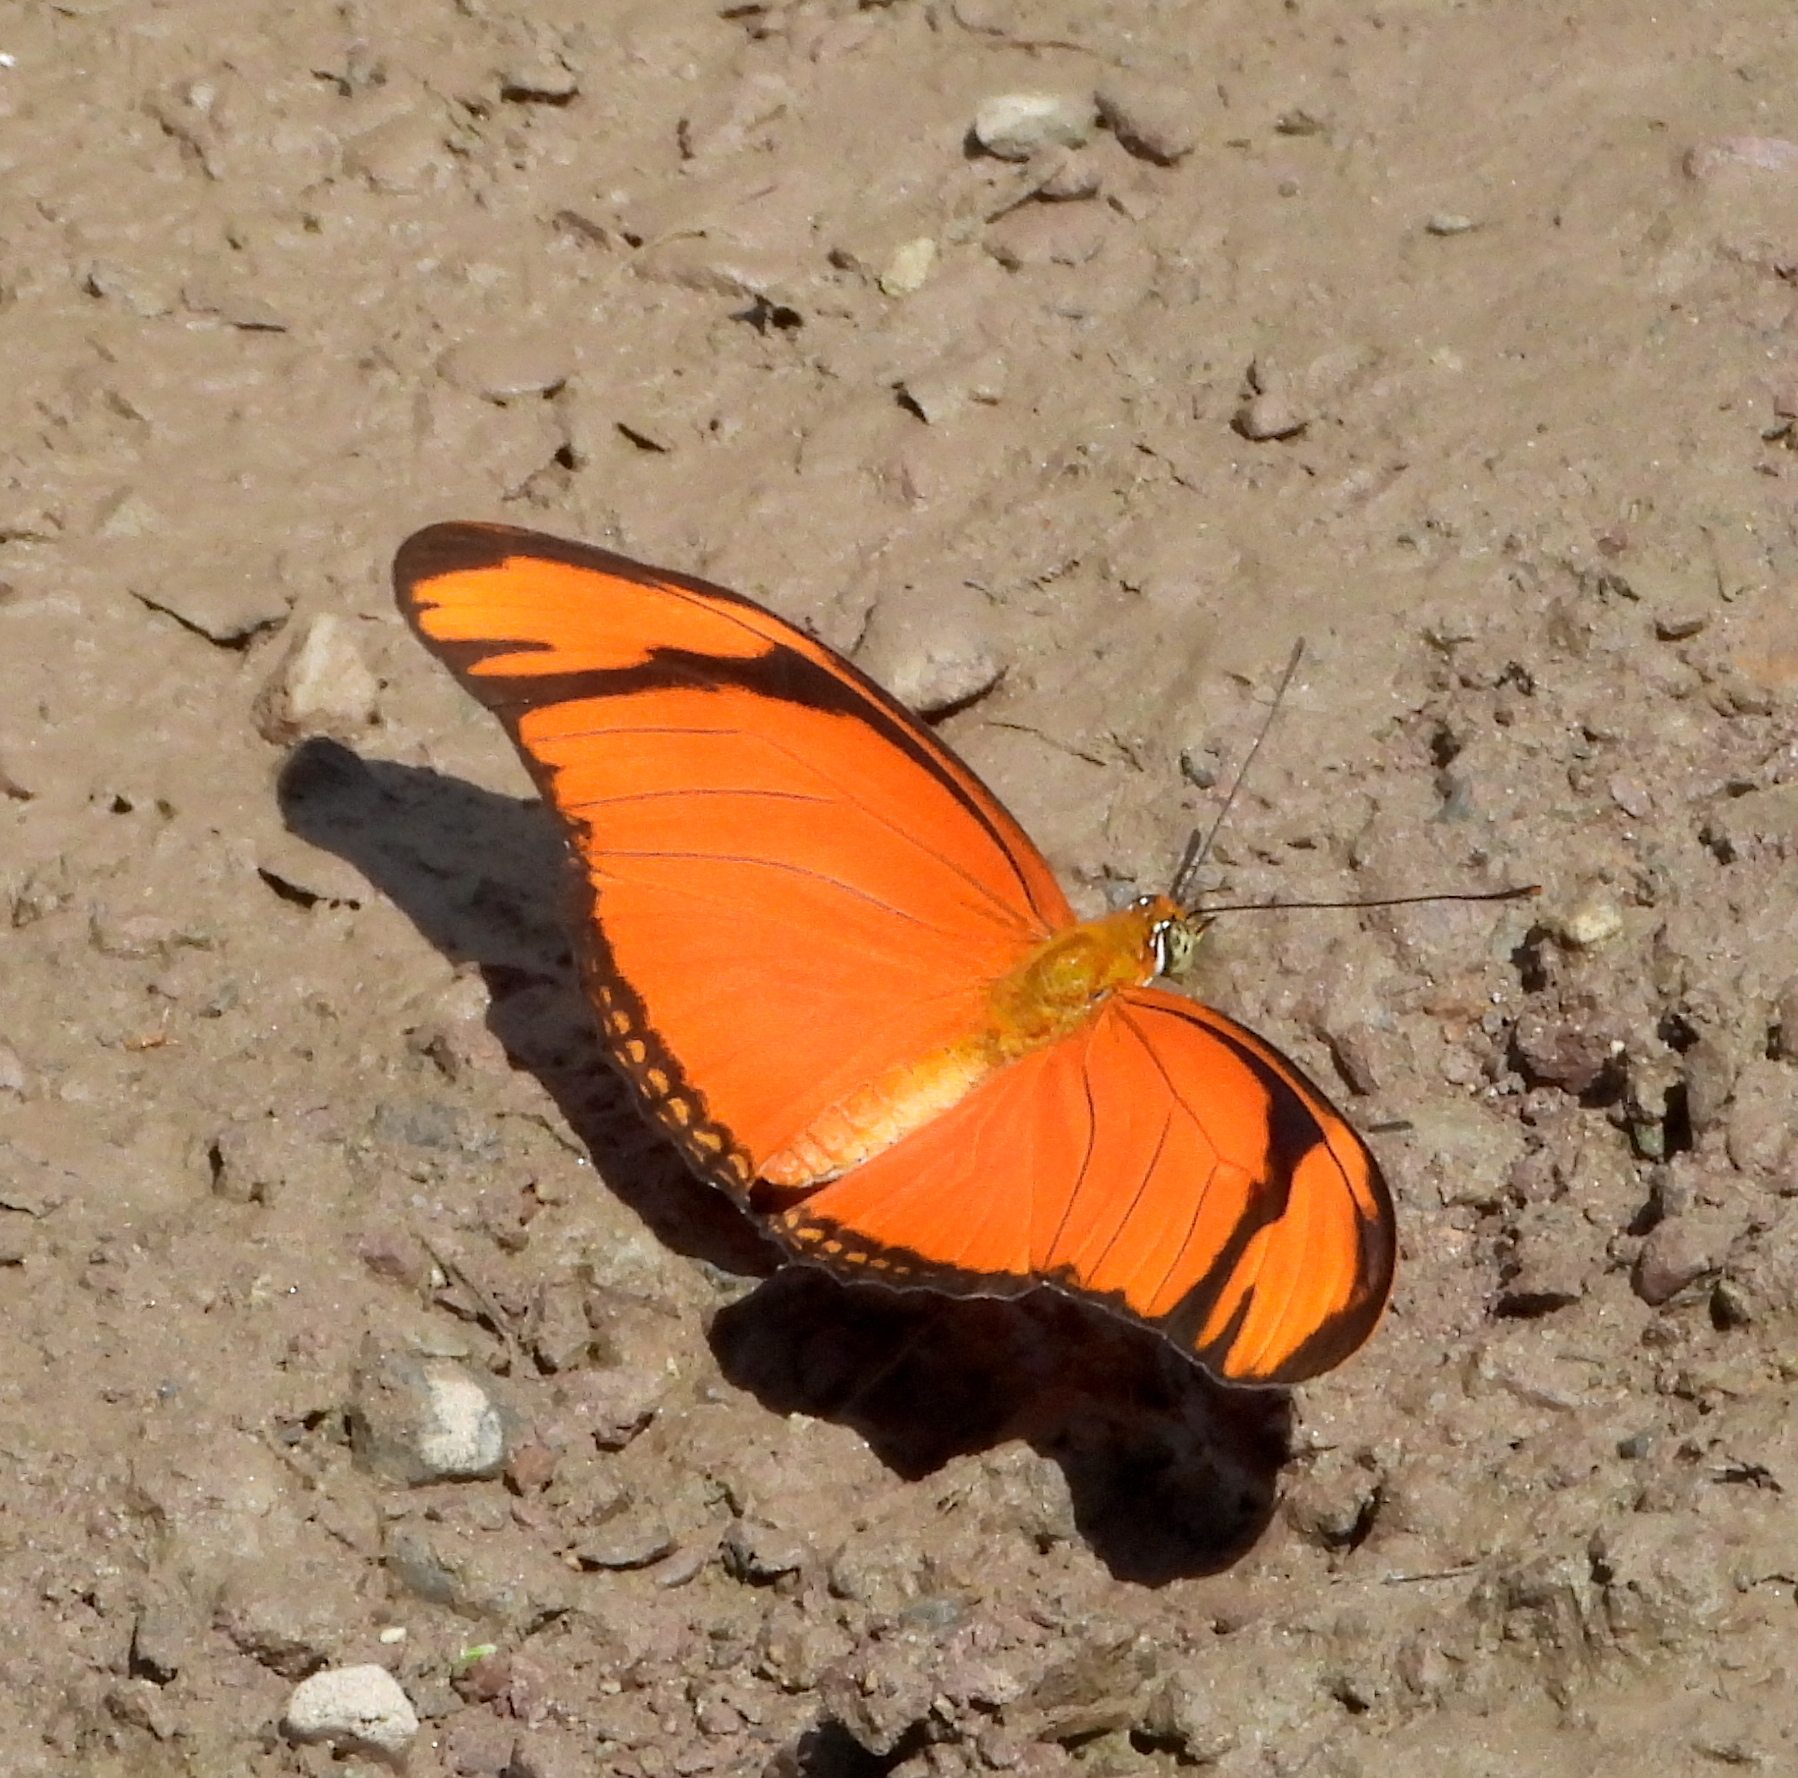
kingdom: Animalia
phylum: Arthropoda
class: Insecta
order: Lepidoptera
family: Nymphalidae
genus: Dryas
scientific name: Dryas iulia
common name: Flambeau
